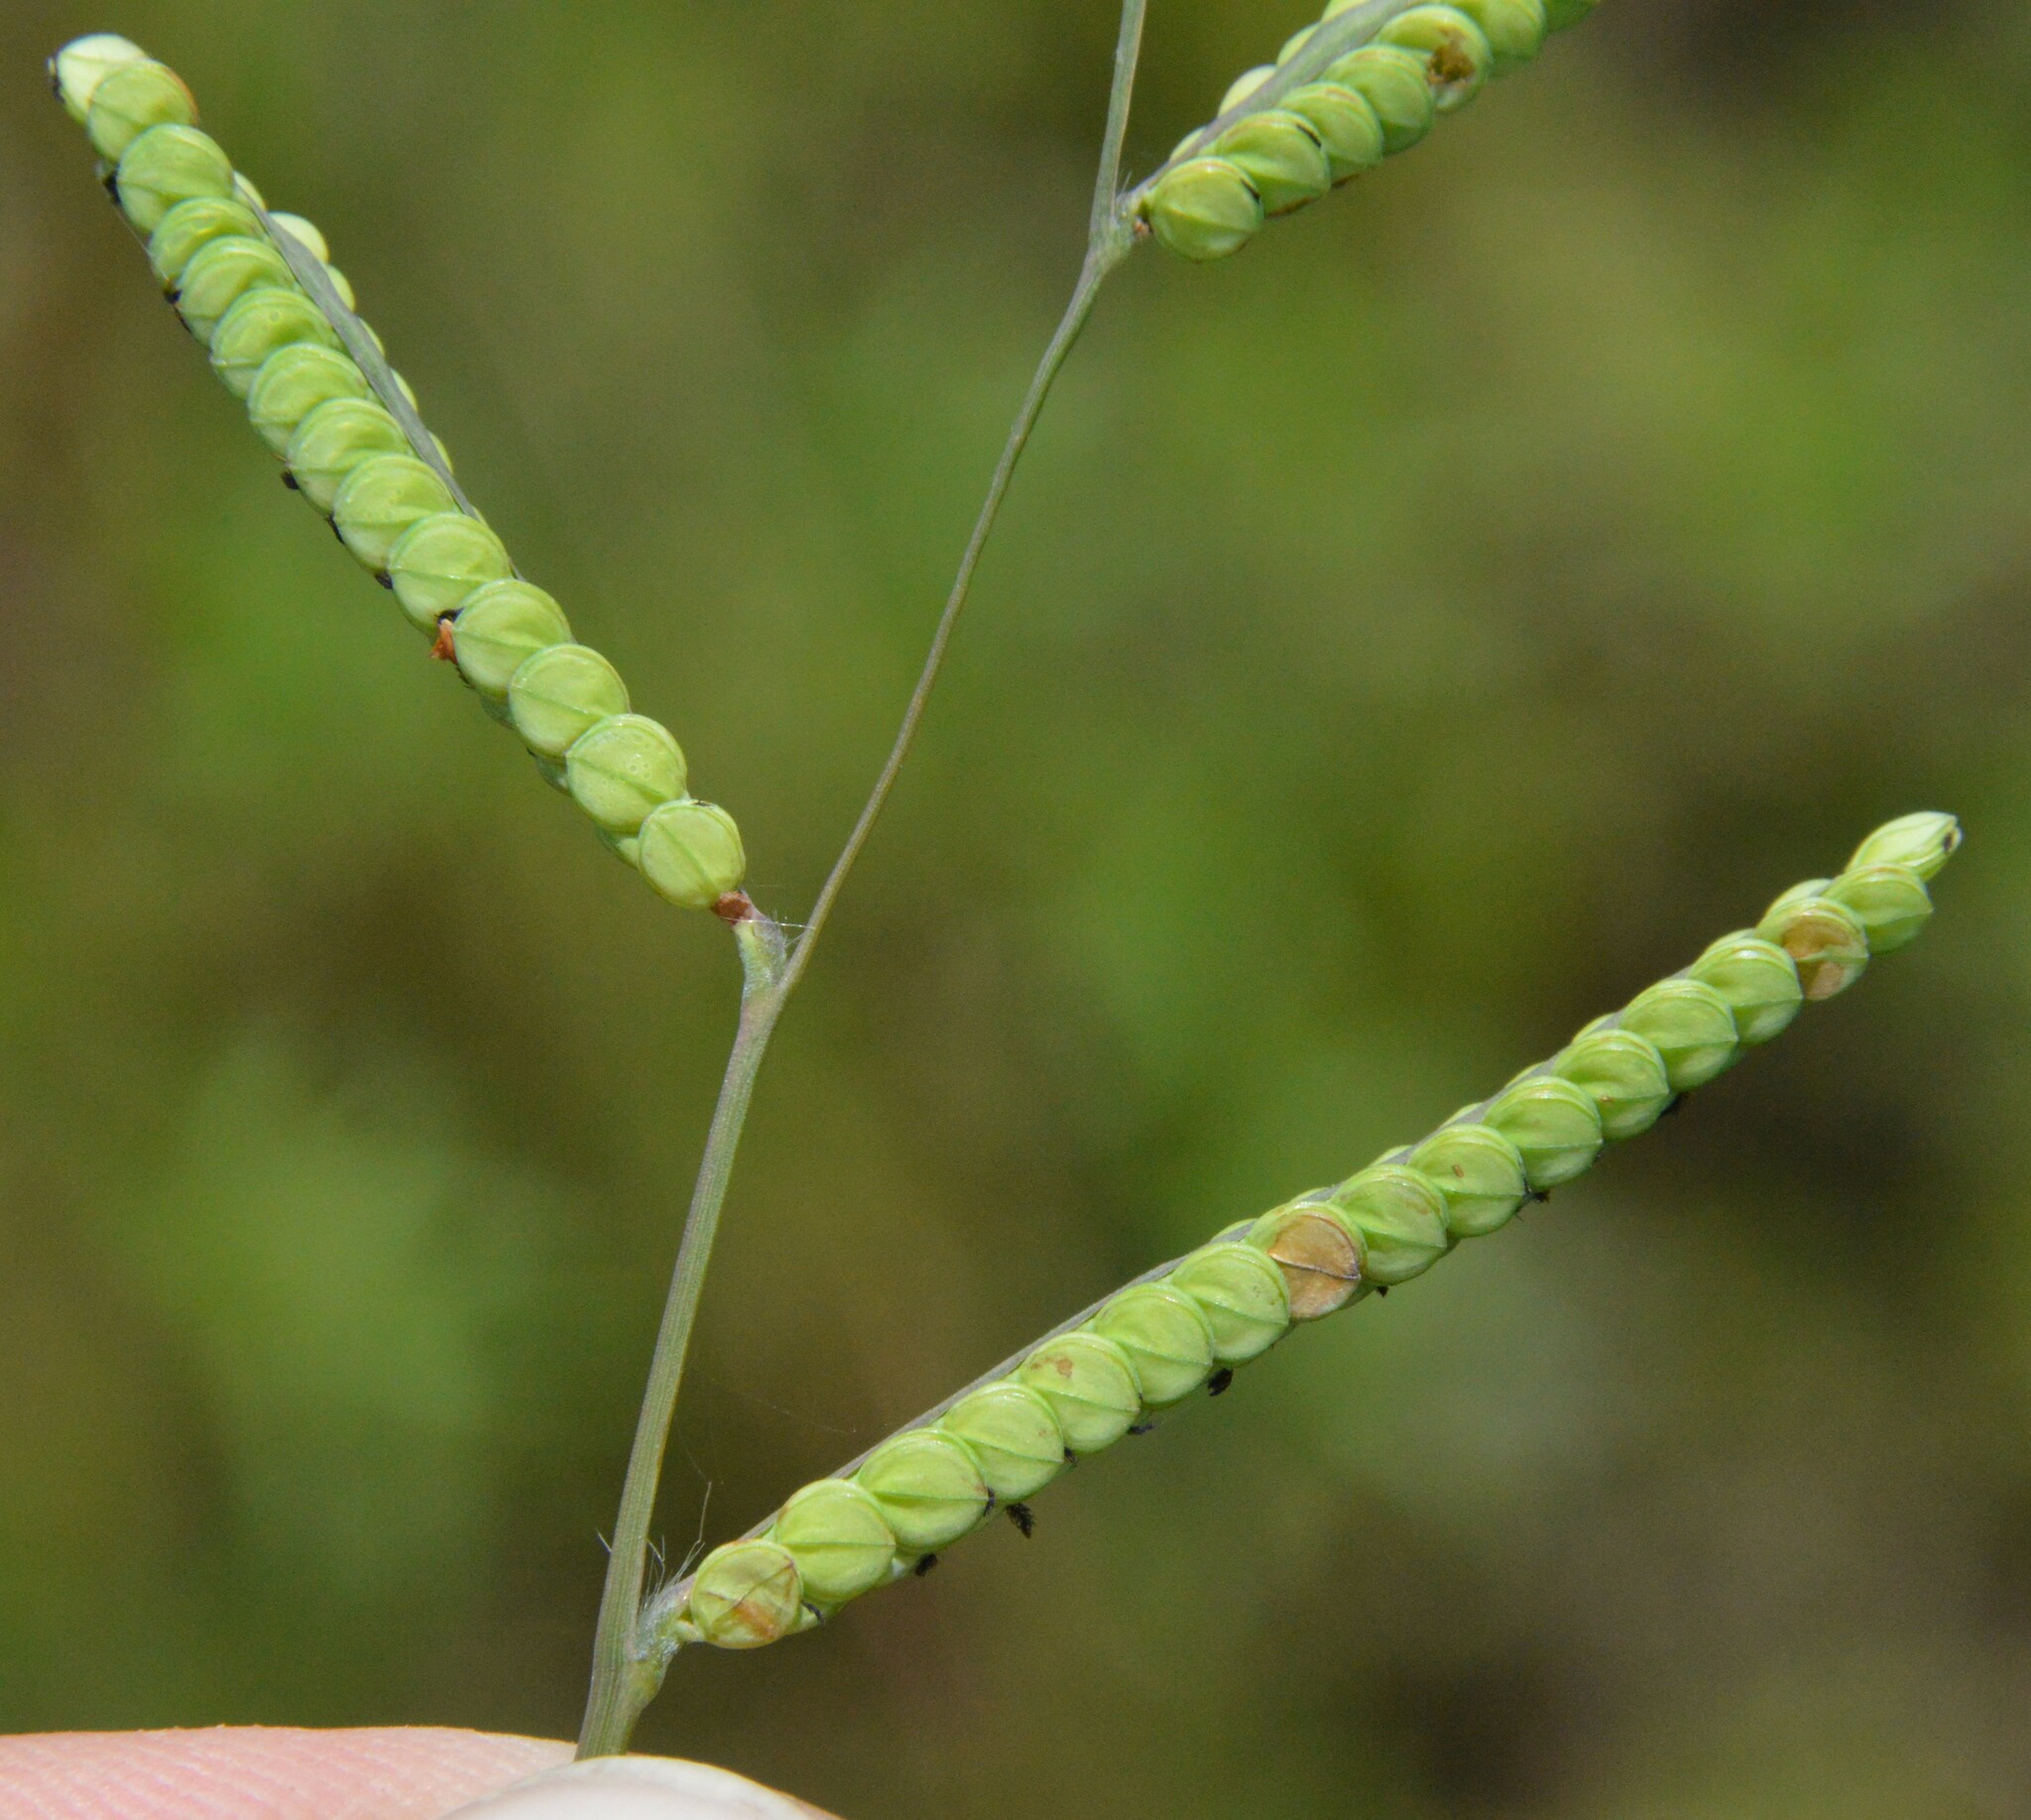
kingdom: Plantae
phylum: Tracheophyta
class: Liliopsida
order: Poales
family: Poaceae
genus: Paspalum
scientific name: Paspalum laeve
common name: Field paspalum
